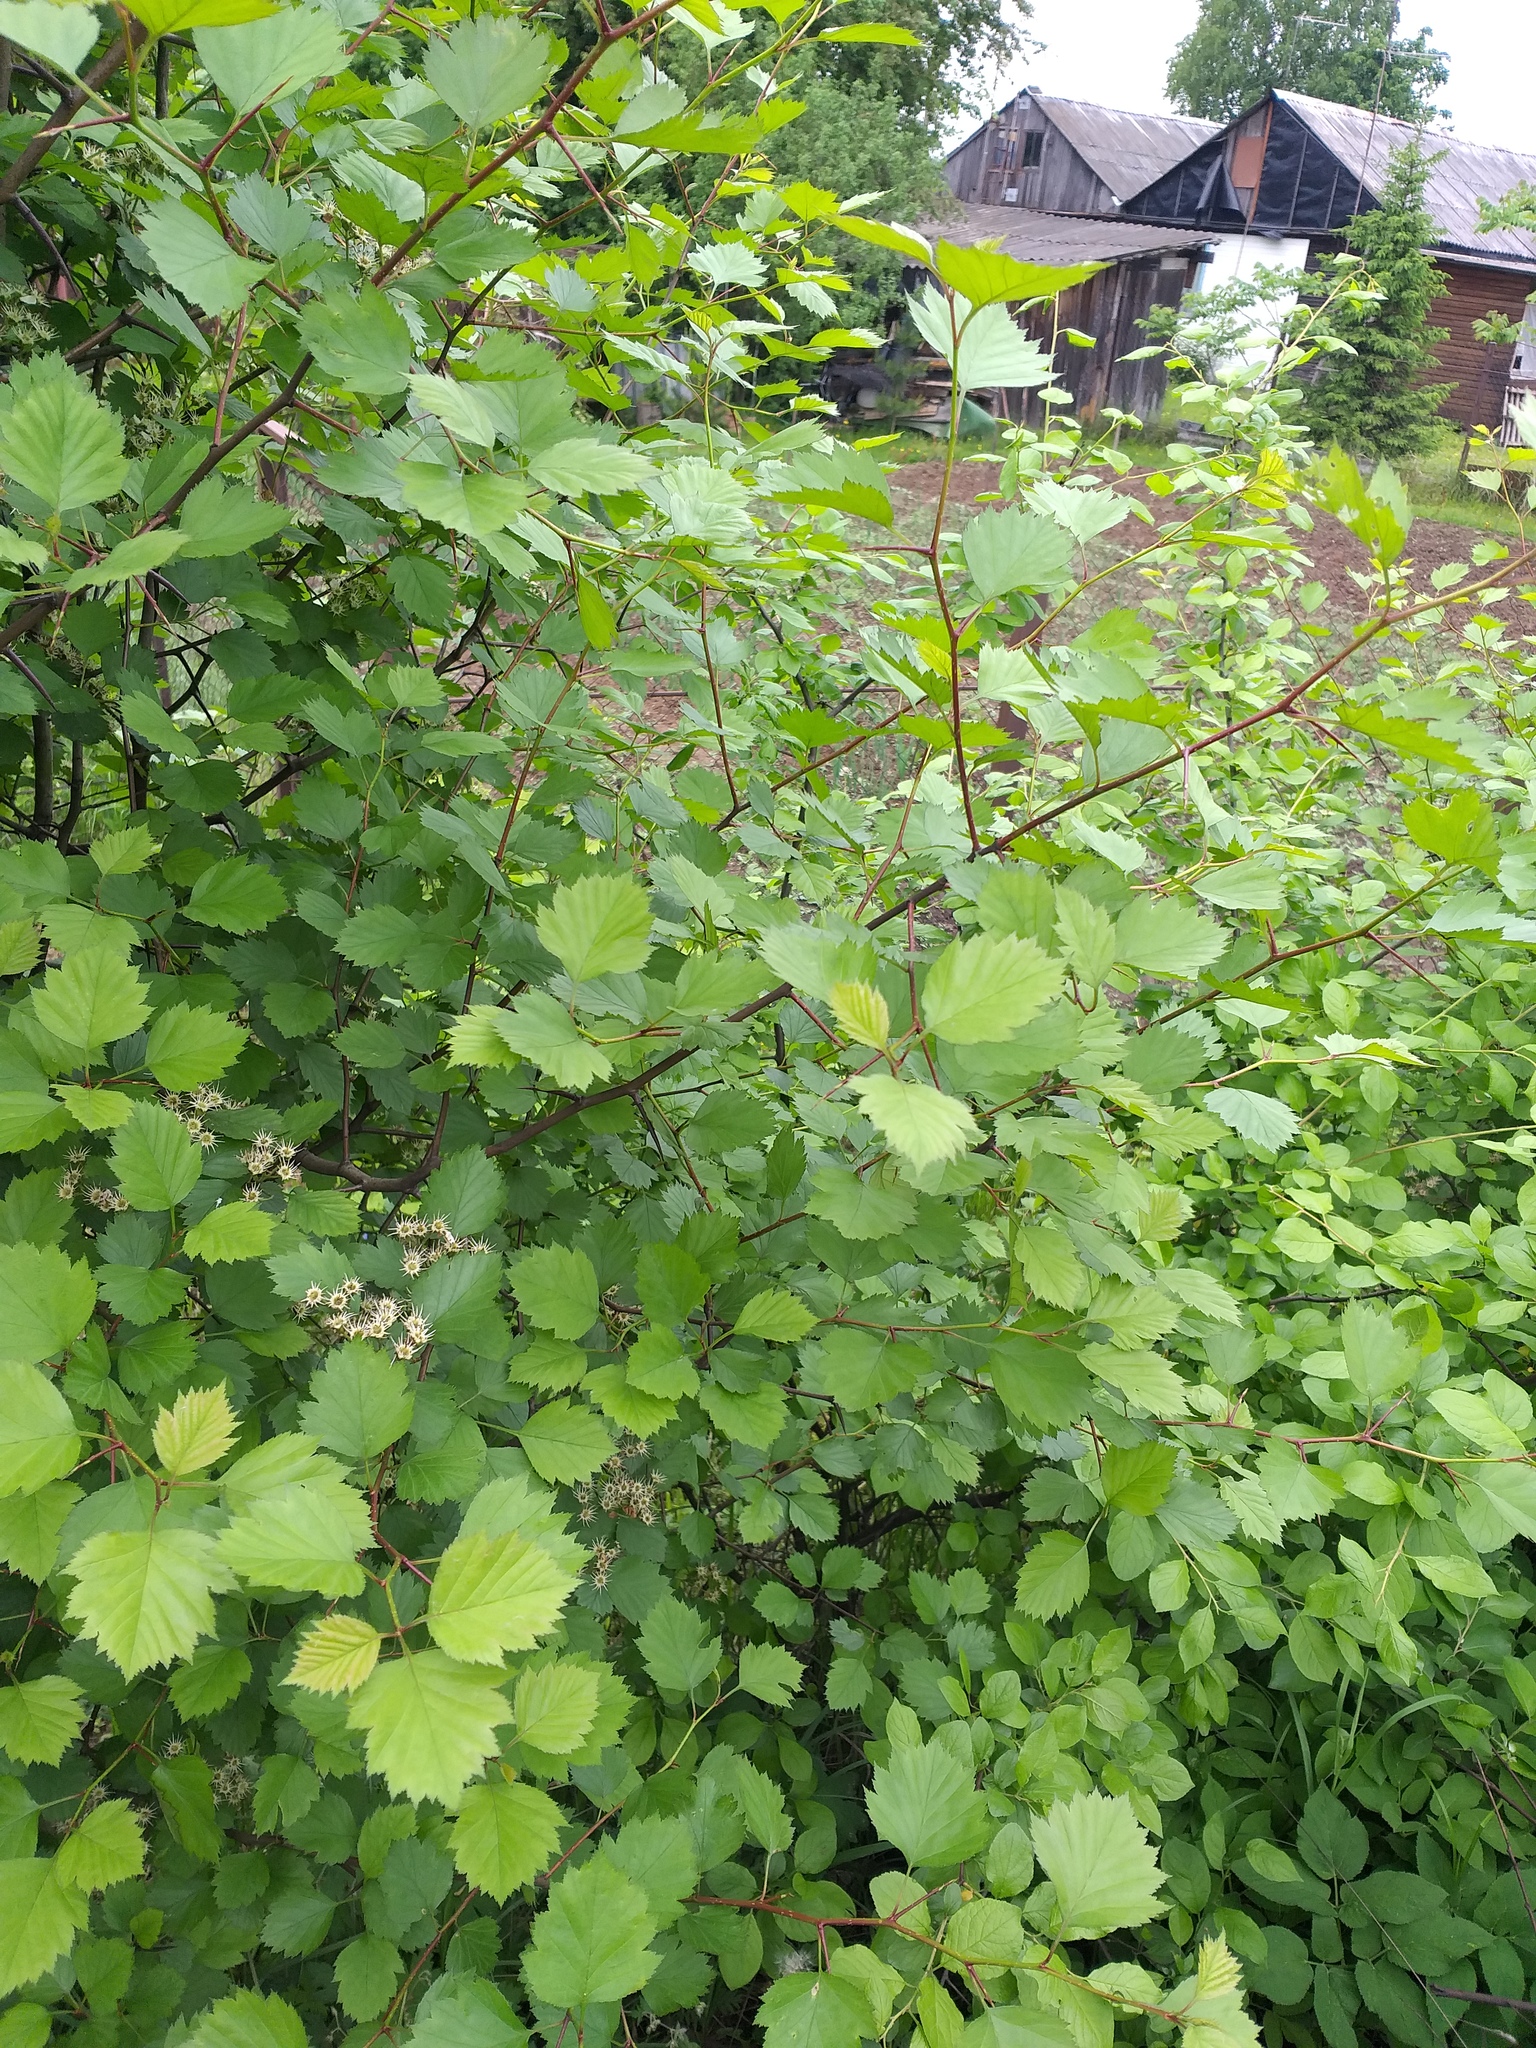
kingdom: Plantae
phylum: Tracheophyta
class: Magnoliopsida
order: Rosales
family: Rosaceae
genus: Crataegus
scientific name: Crataegus flabellata
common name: Bosc's hawthorn
